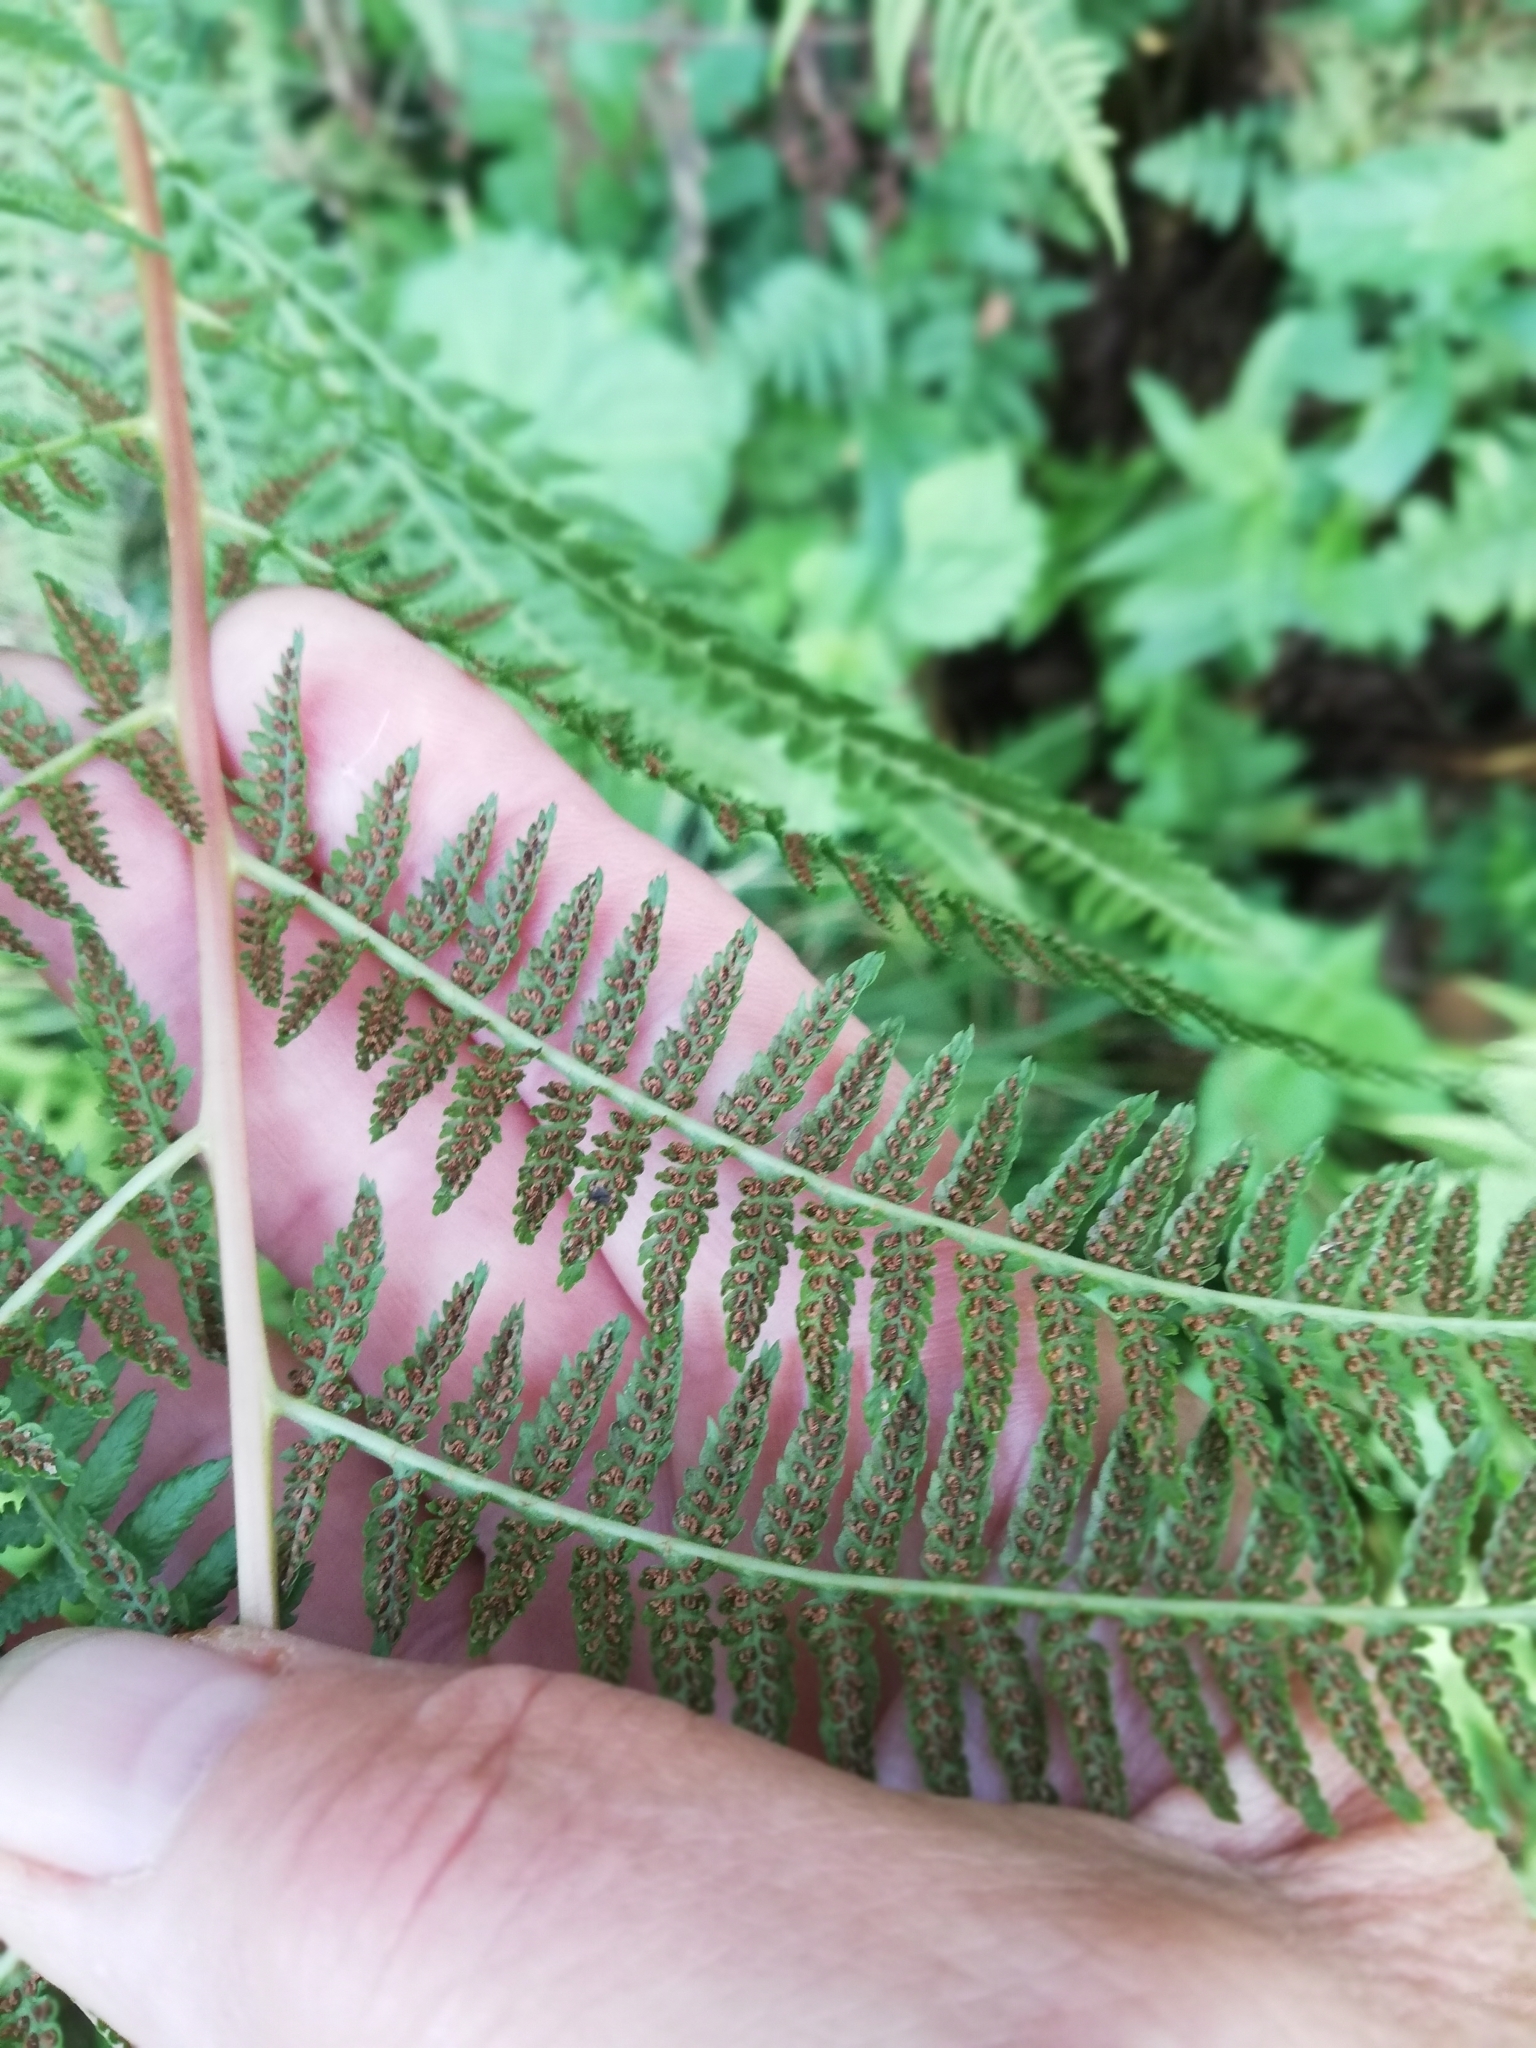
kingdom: Plantae
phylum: Tracheophyta
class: Polypodiopsida
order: Polypodiales
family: Athyriaceae
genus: Athyrium
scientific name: Athyrium filix-femina
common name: Lady fern
